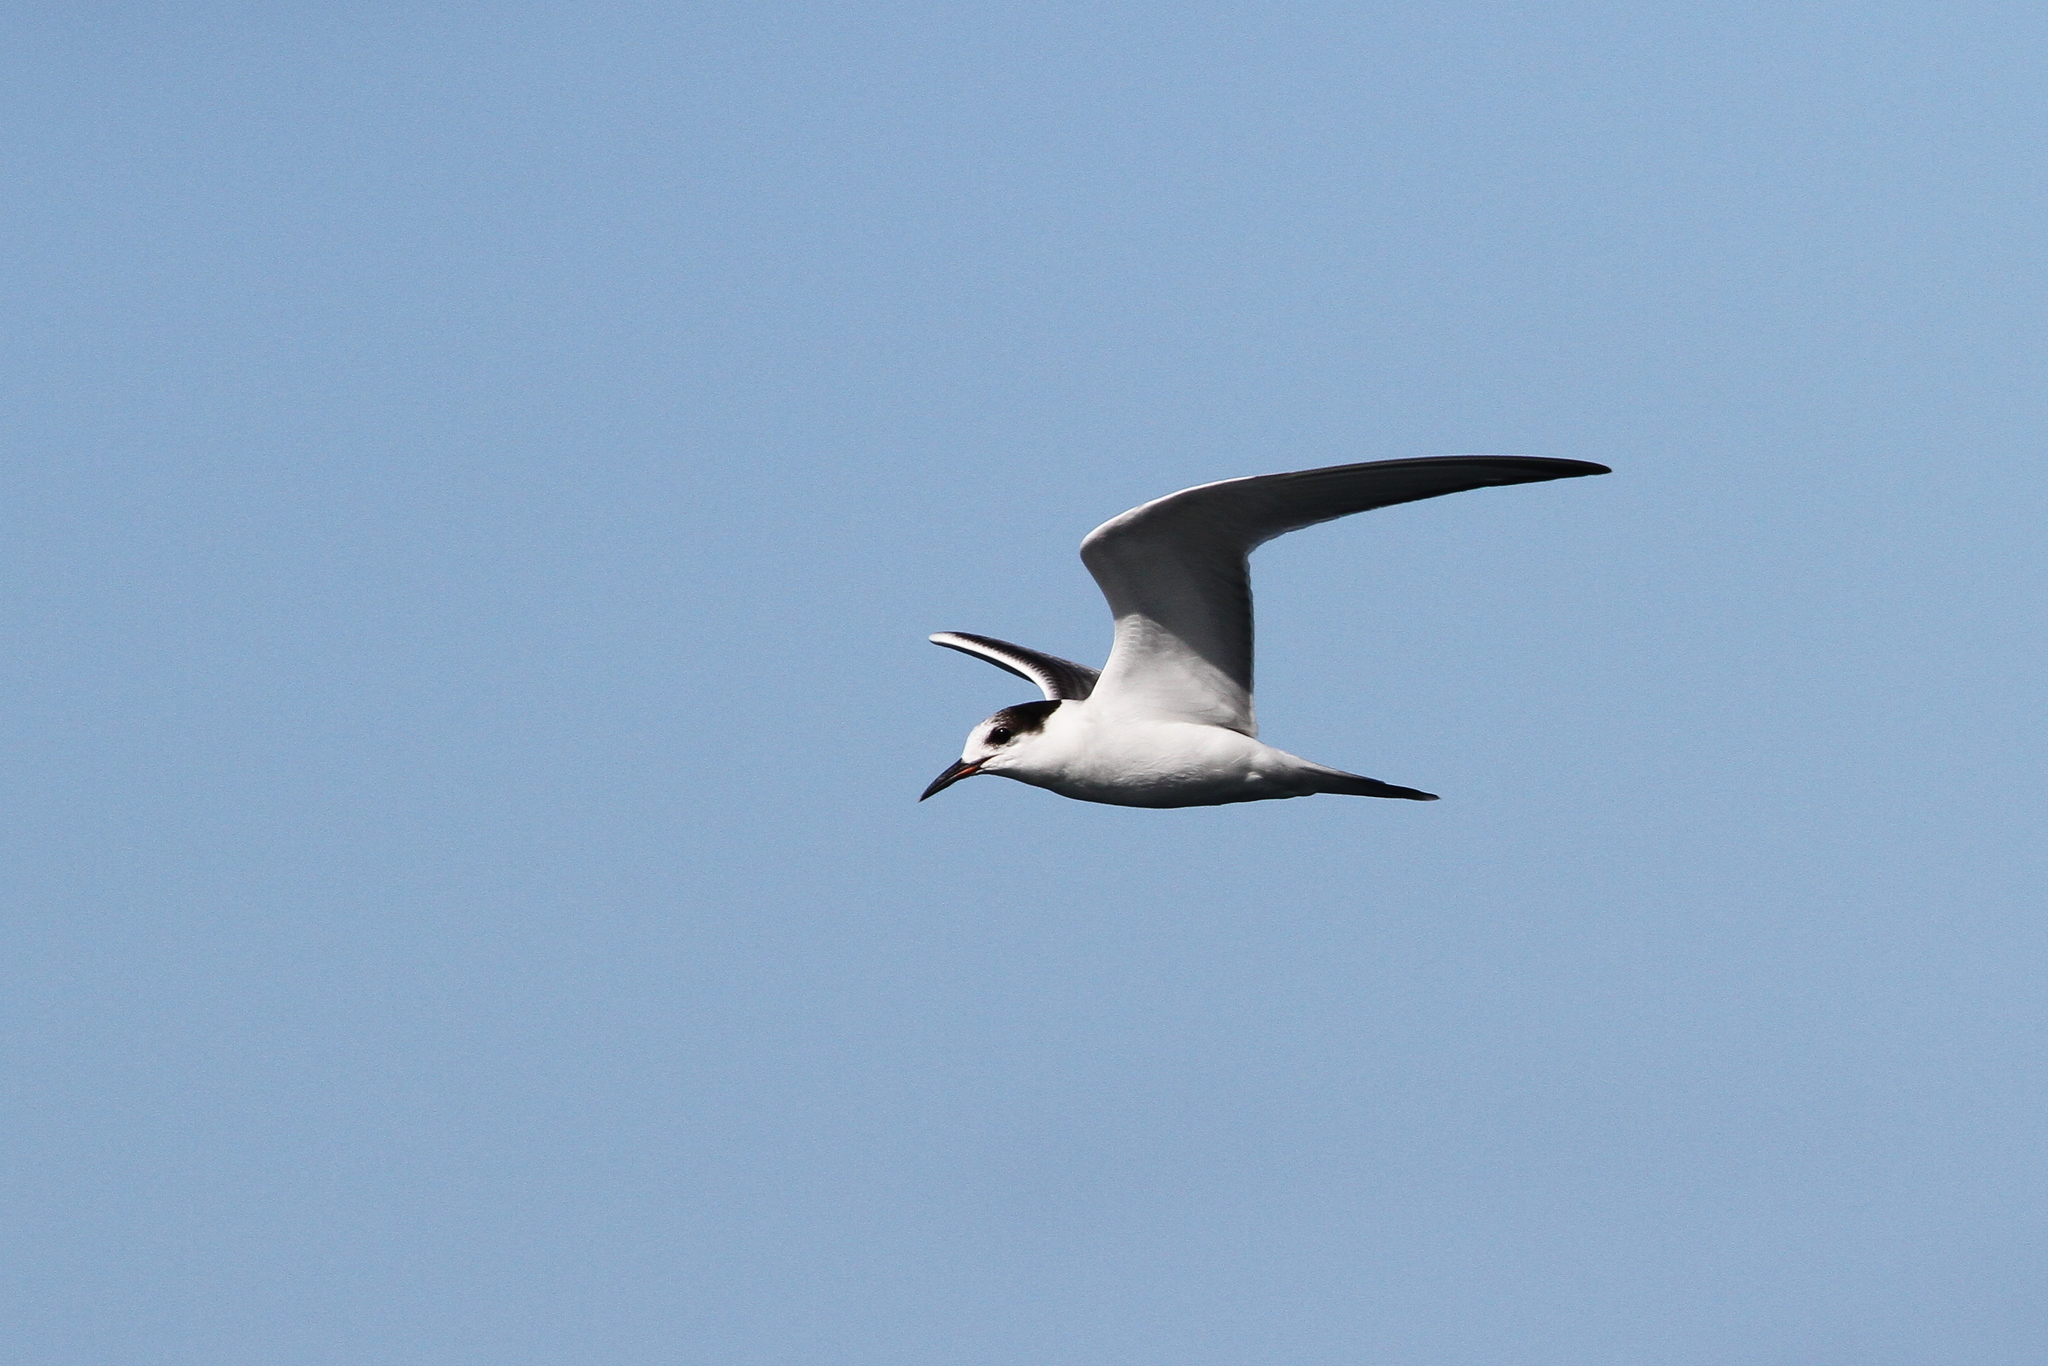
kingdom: Animalia
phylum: Chordata
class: Aves
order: Charadriiformes
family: Laridae
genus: Sterna
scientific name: Sterna hirundo
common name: Common tern
